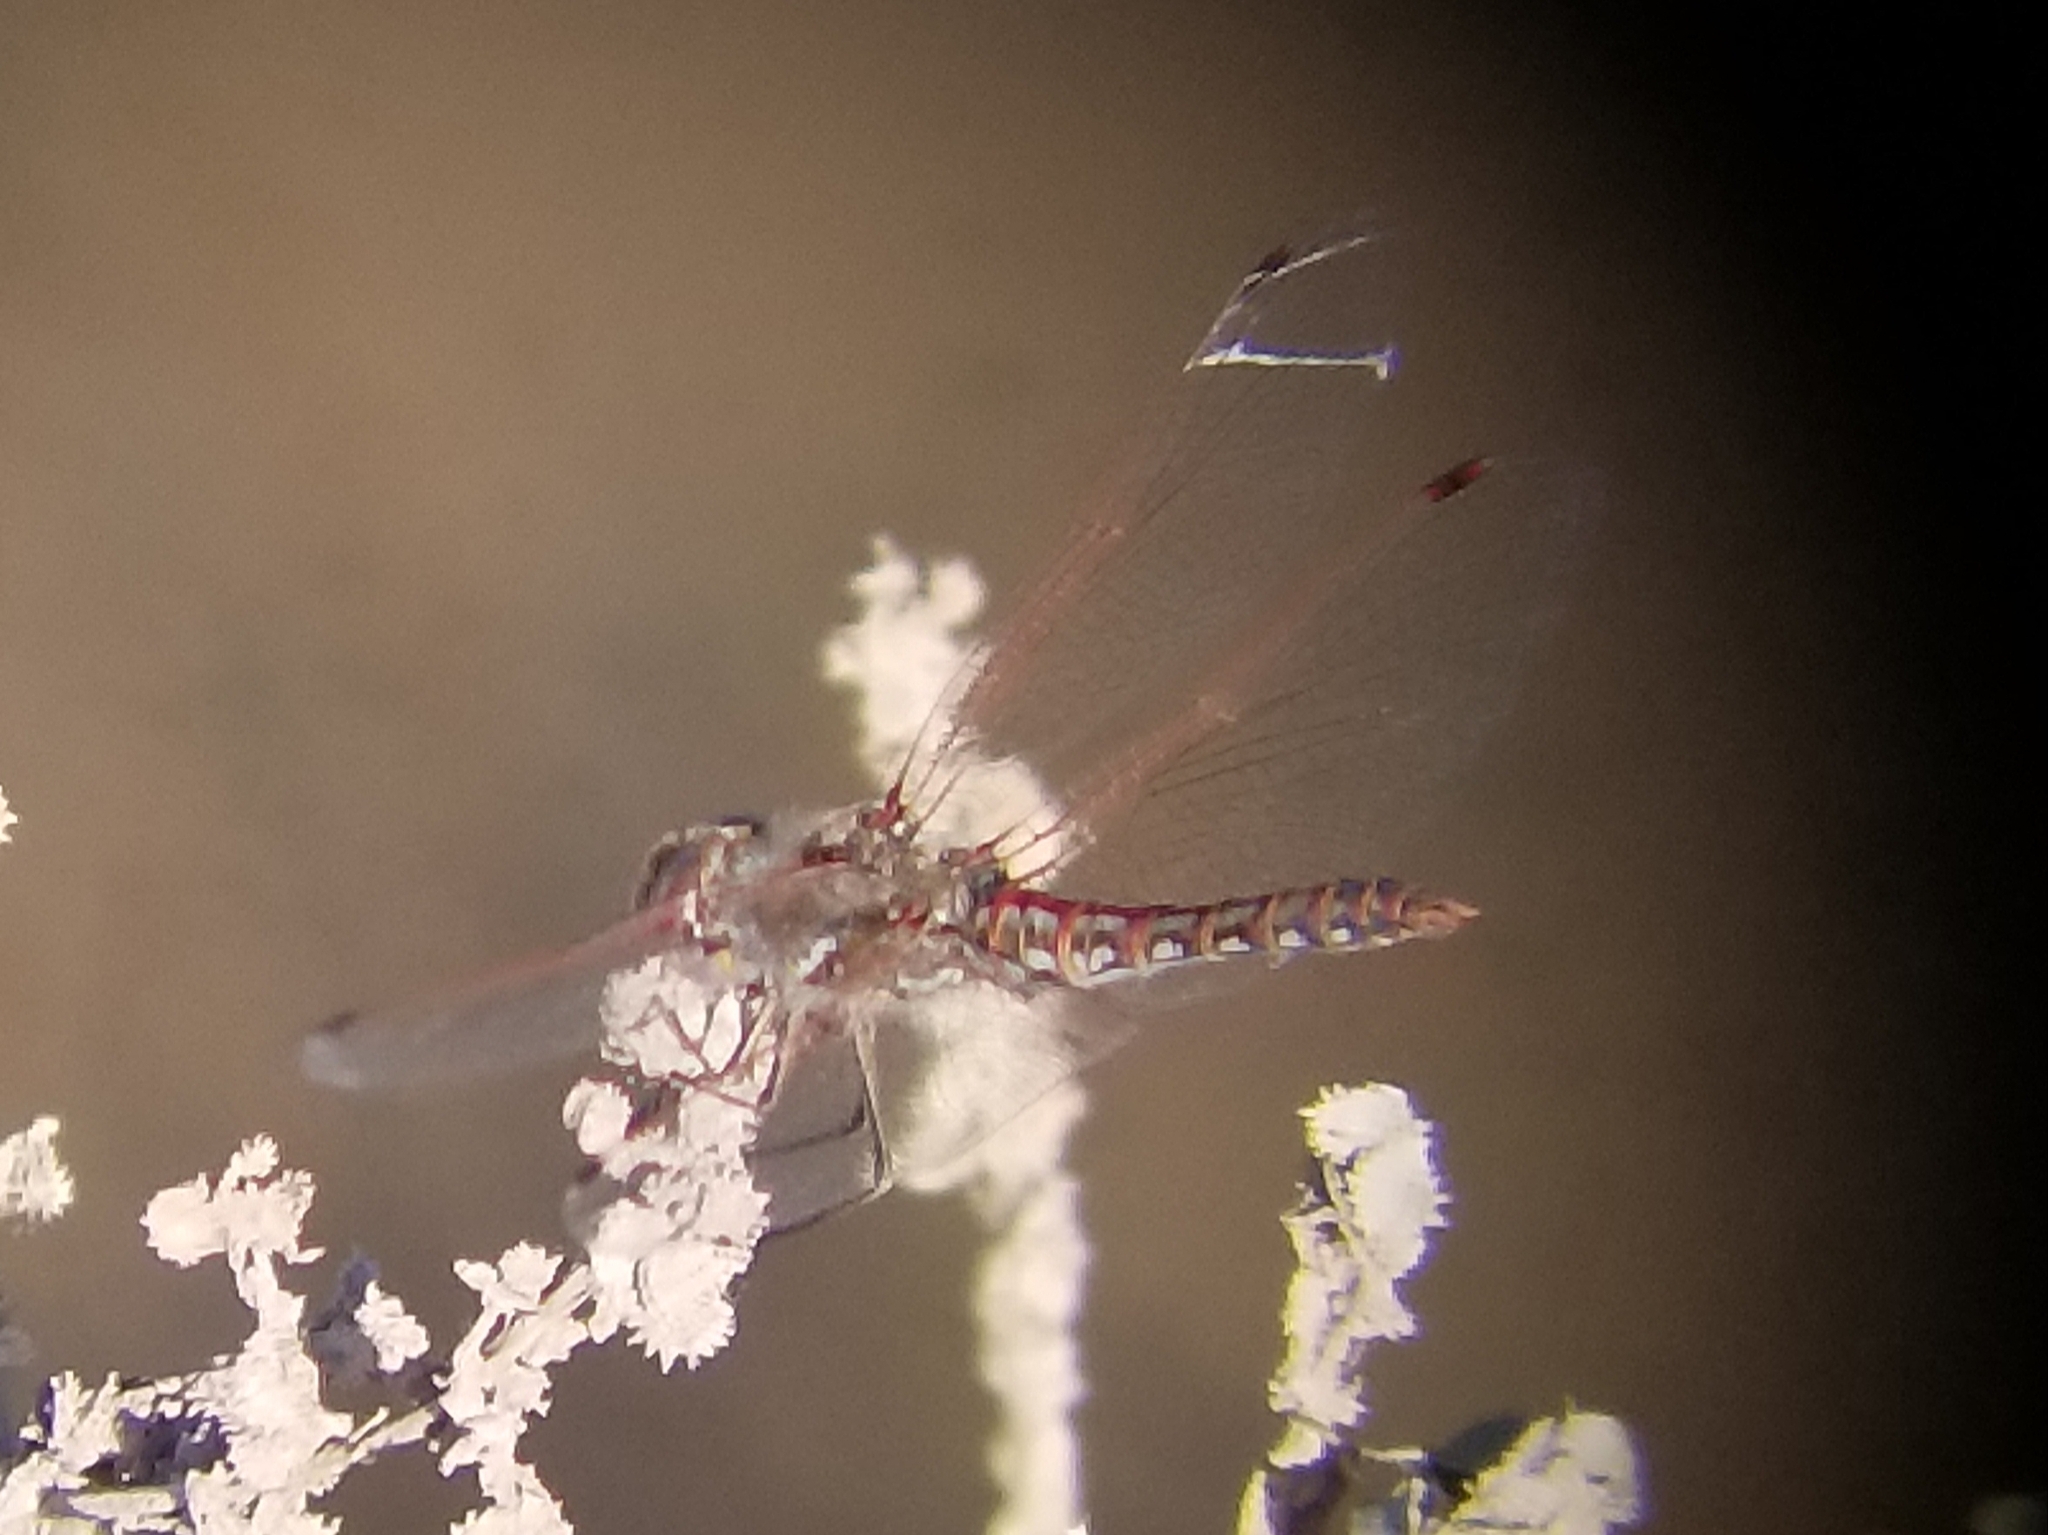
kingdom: Animalia
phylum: Arthropoda
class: Insecta
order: Odonata
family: Libellulidae
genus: Sympetrum
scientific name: Sympetrum corruptum
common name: Variegated meadowhawk
